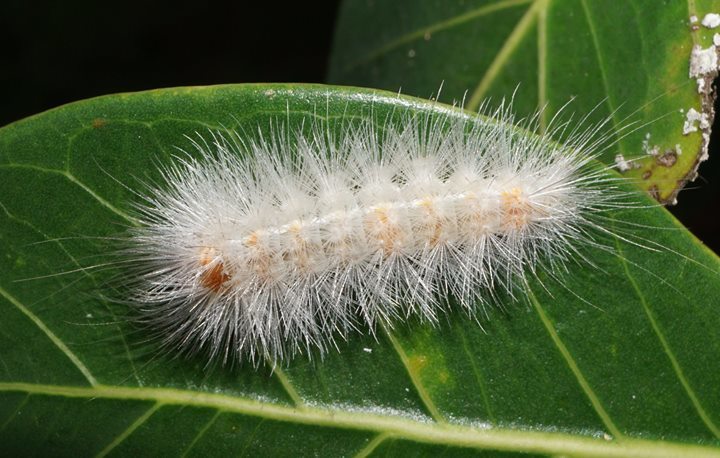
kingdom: Animalia
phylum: Arthropoda
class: Insecta
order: Lepidoptera
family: Erebidae
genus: Lymire
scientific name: Lymire edwardsii
